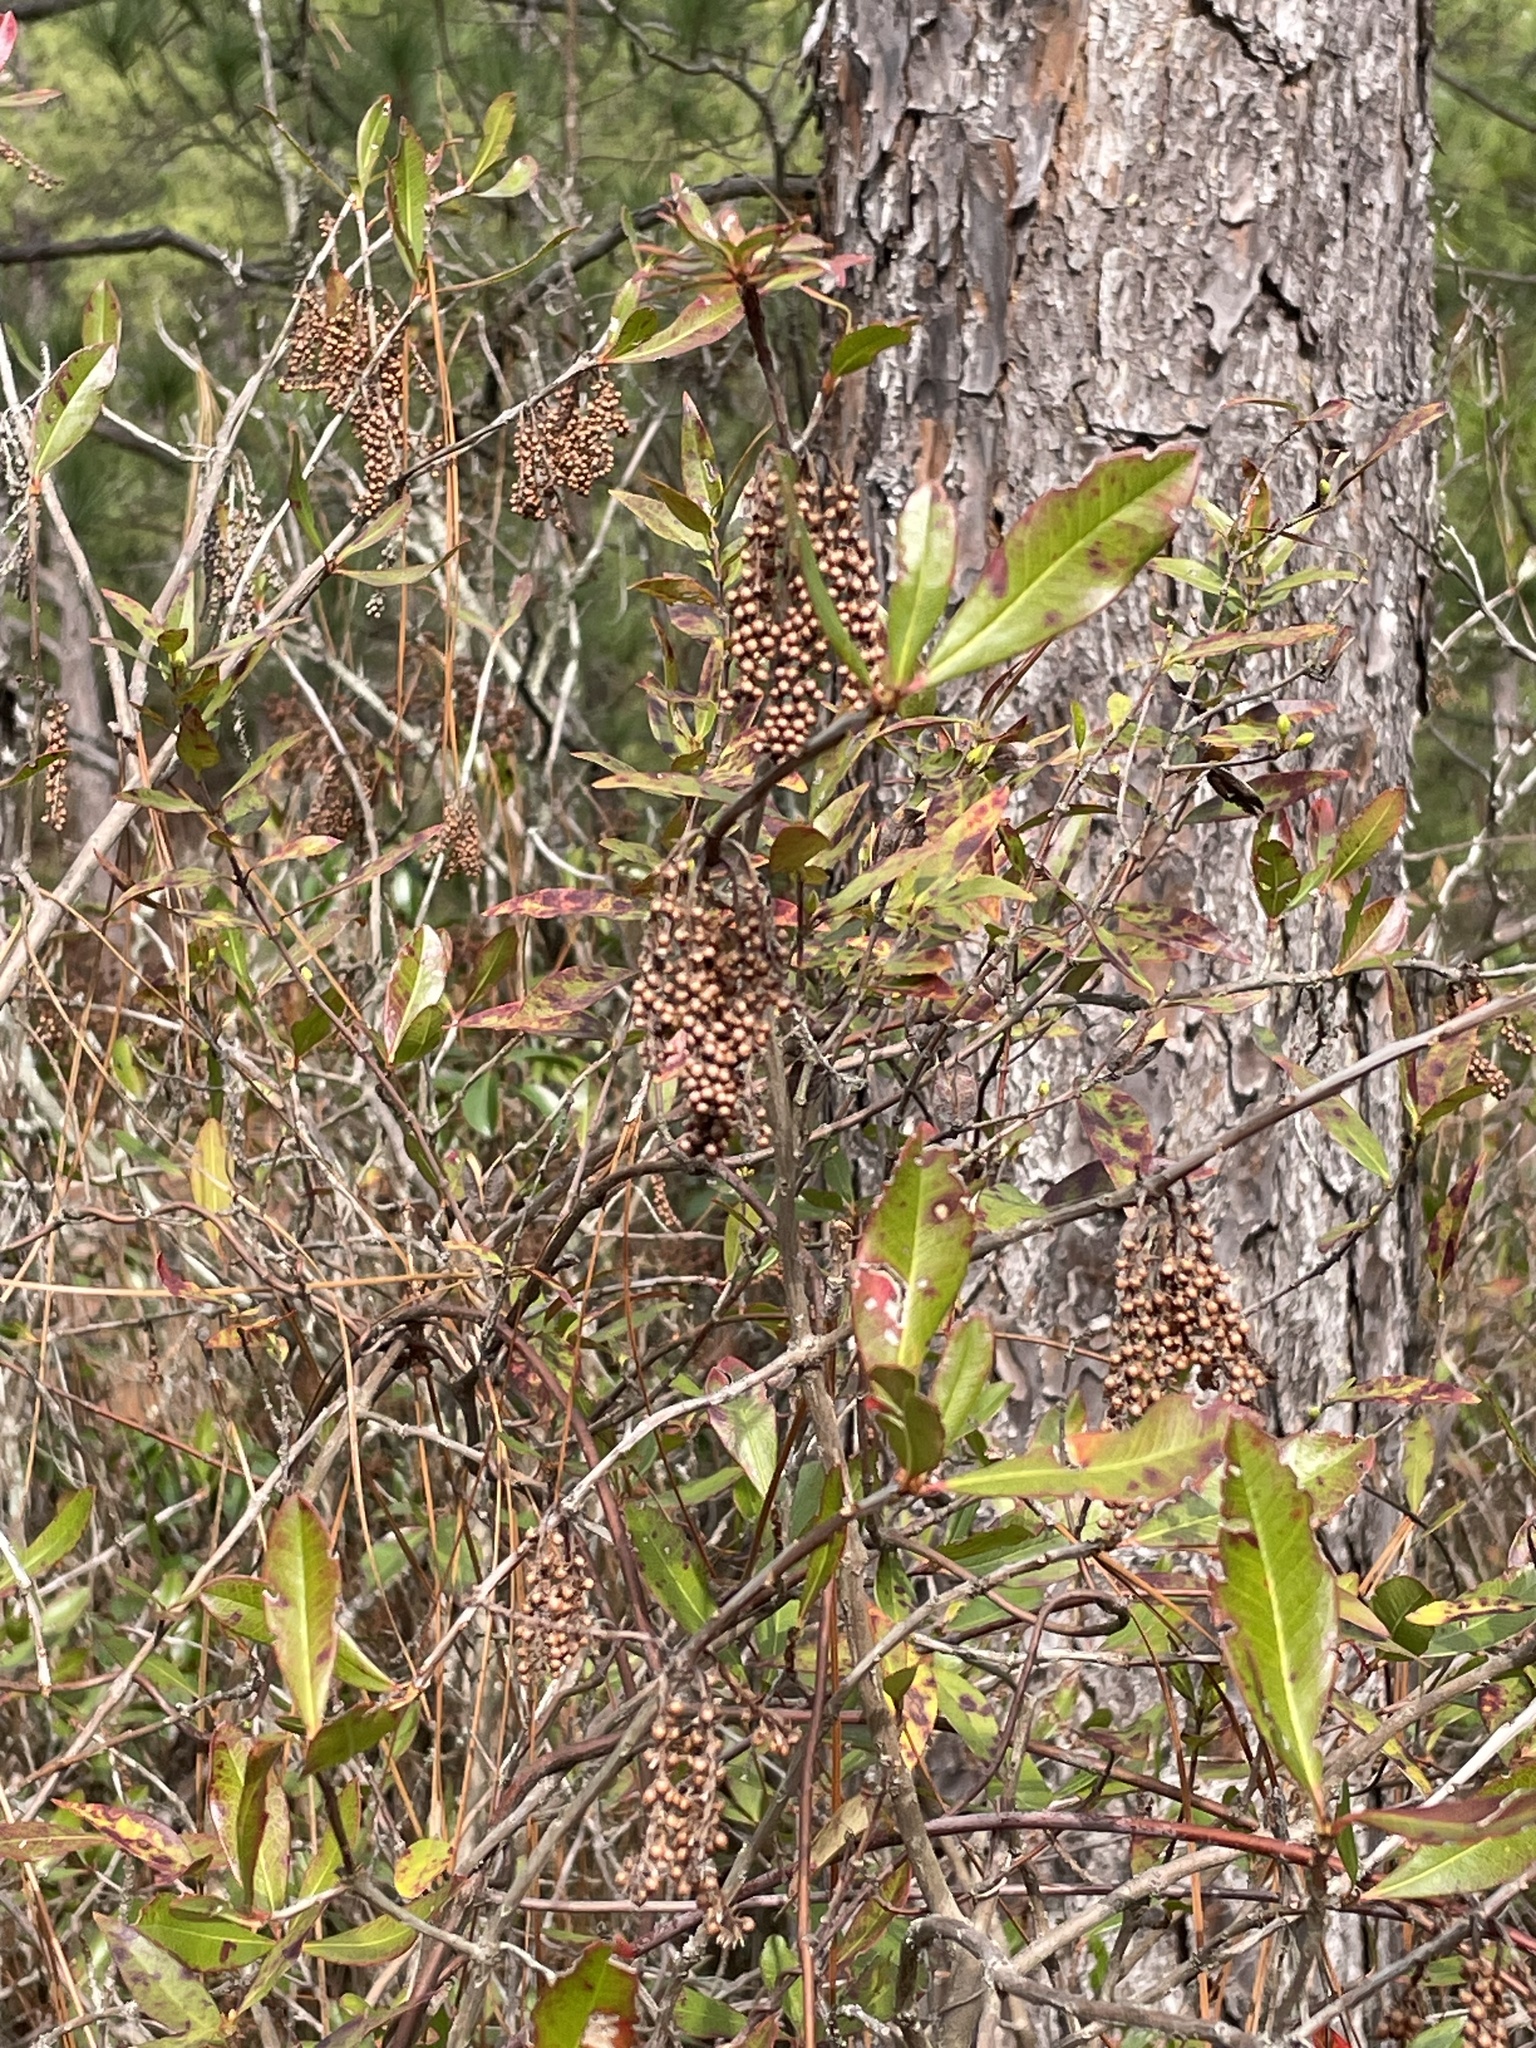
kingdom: Plantae
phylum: Tracheophyta
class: Magnoliopsida
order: Ericales
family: Cyrillaceae
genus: Cyrilla
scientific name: Cyrilla racemiflora
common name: Black titi
